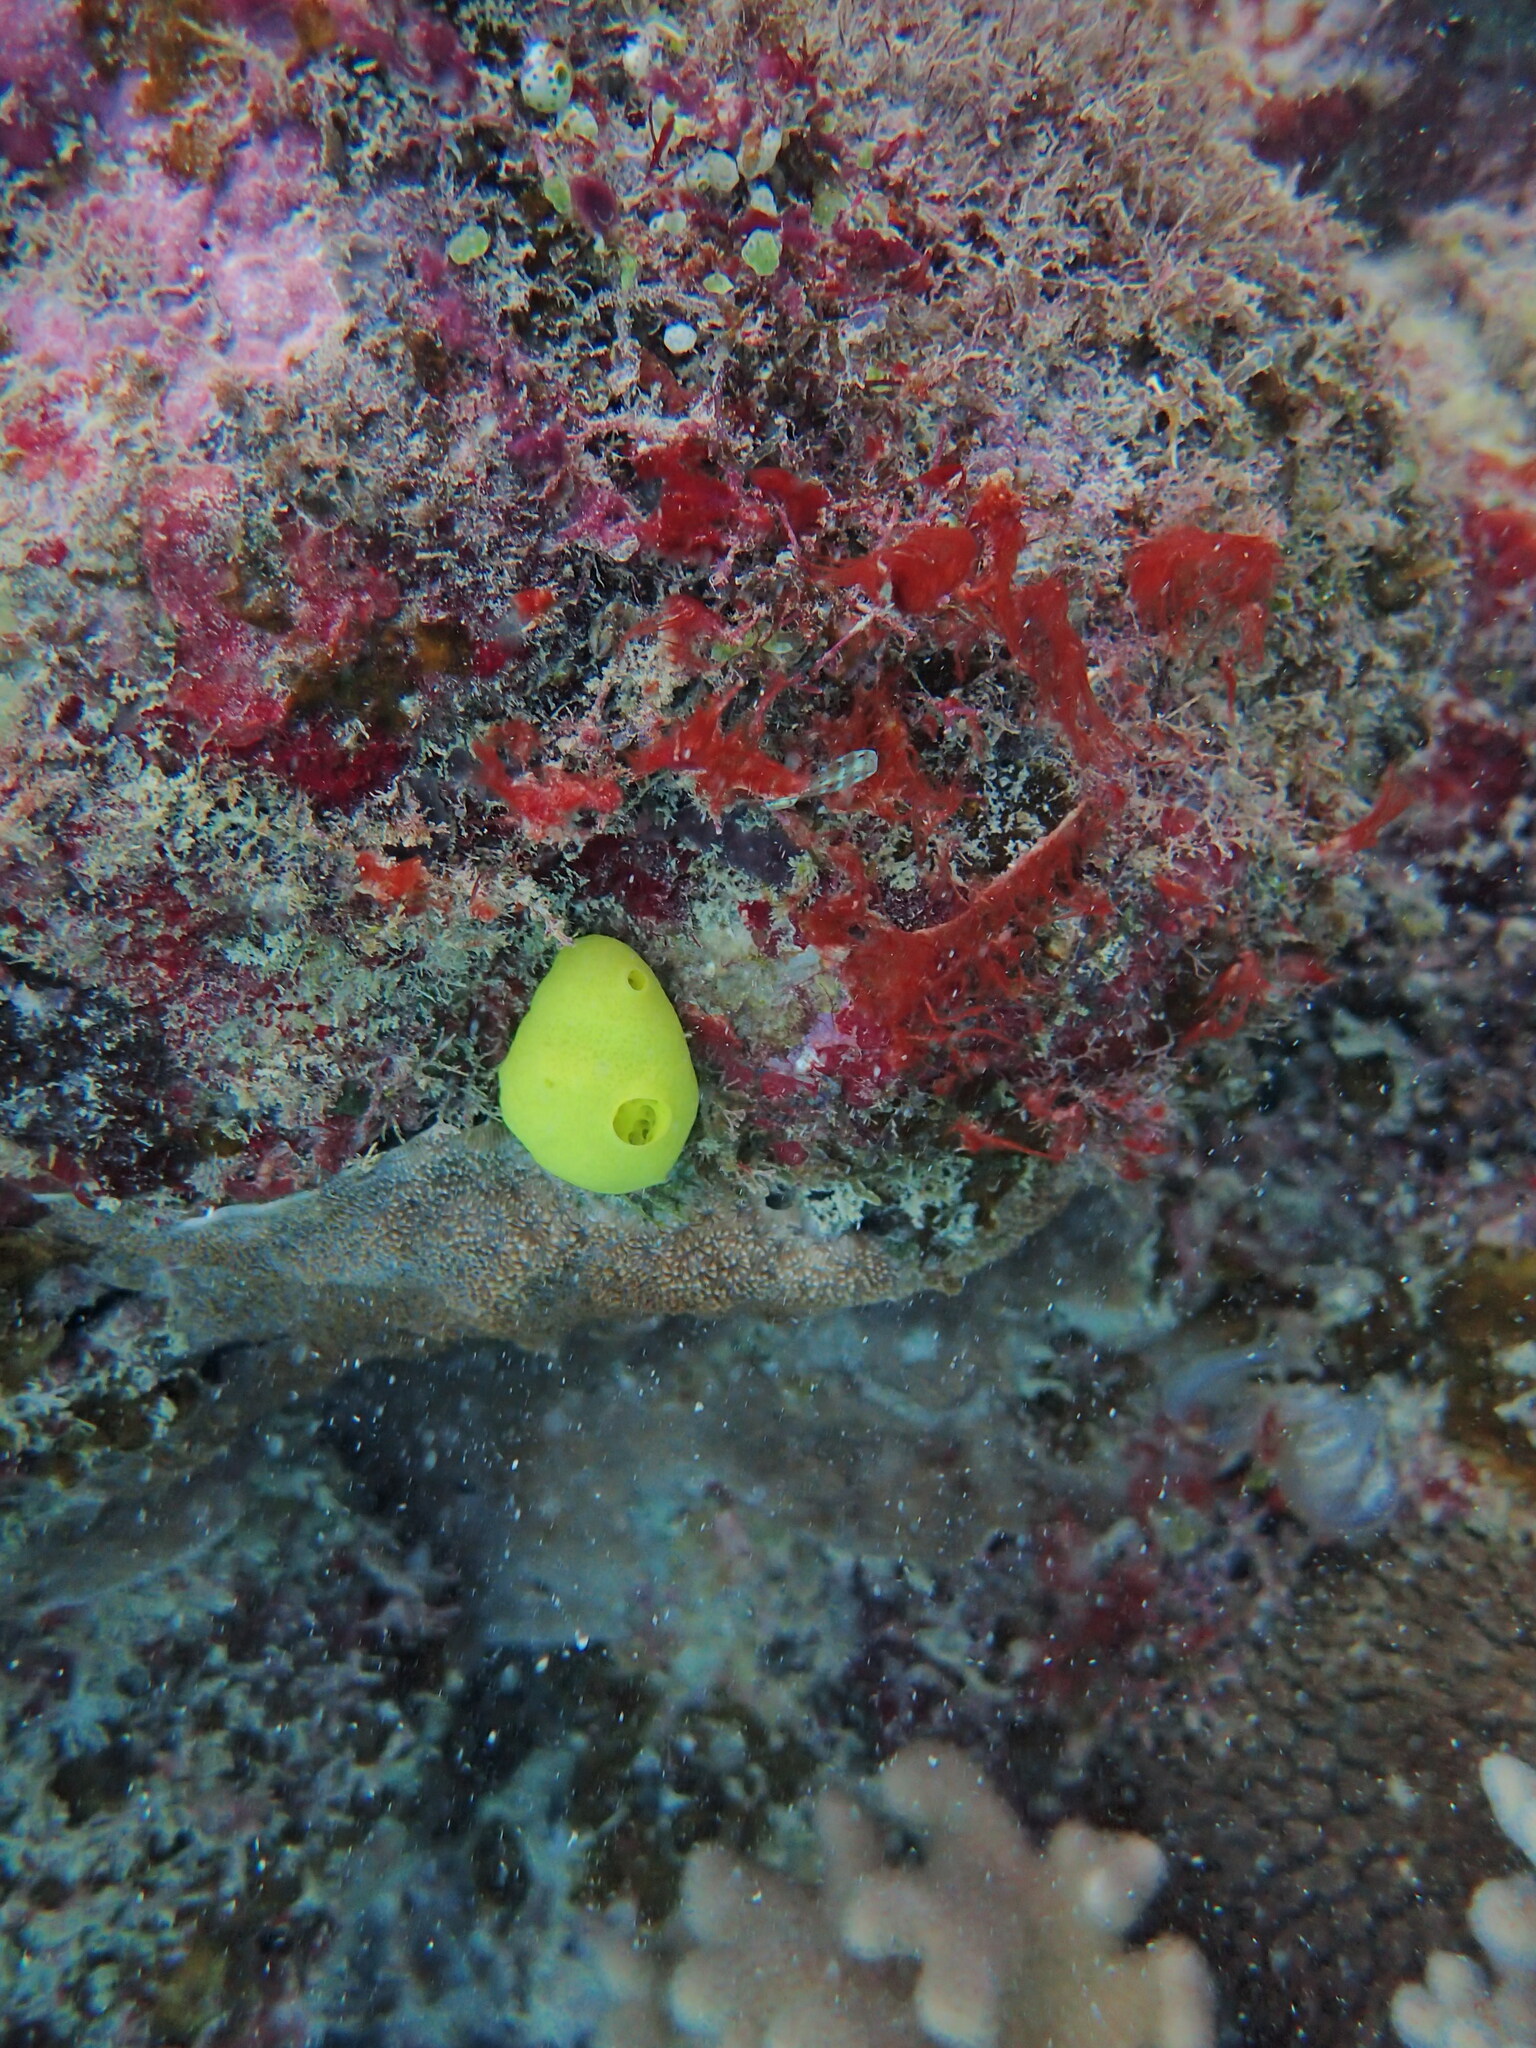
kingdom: Animalia
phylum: Porifera
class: Calcarea
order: Clathrinida
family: Leucettidae
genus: Leucetta
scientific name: Leucetta chagosensis
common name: Lemon sponge
